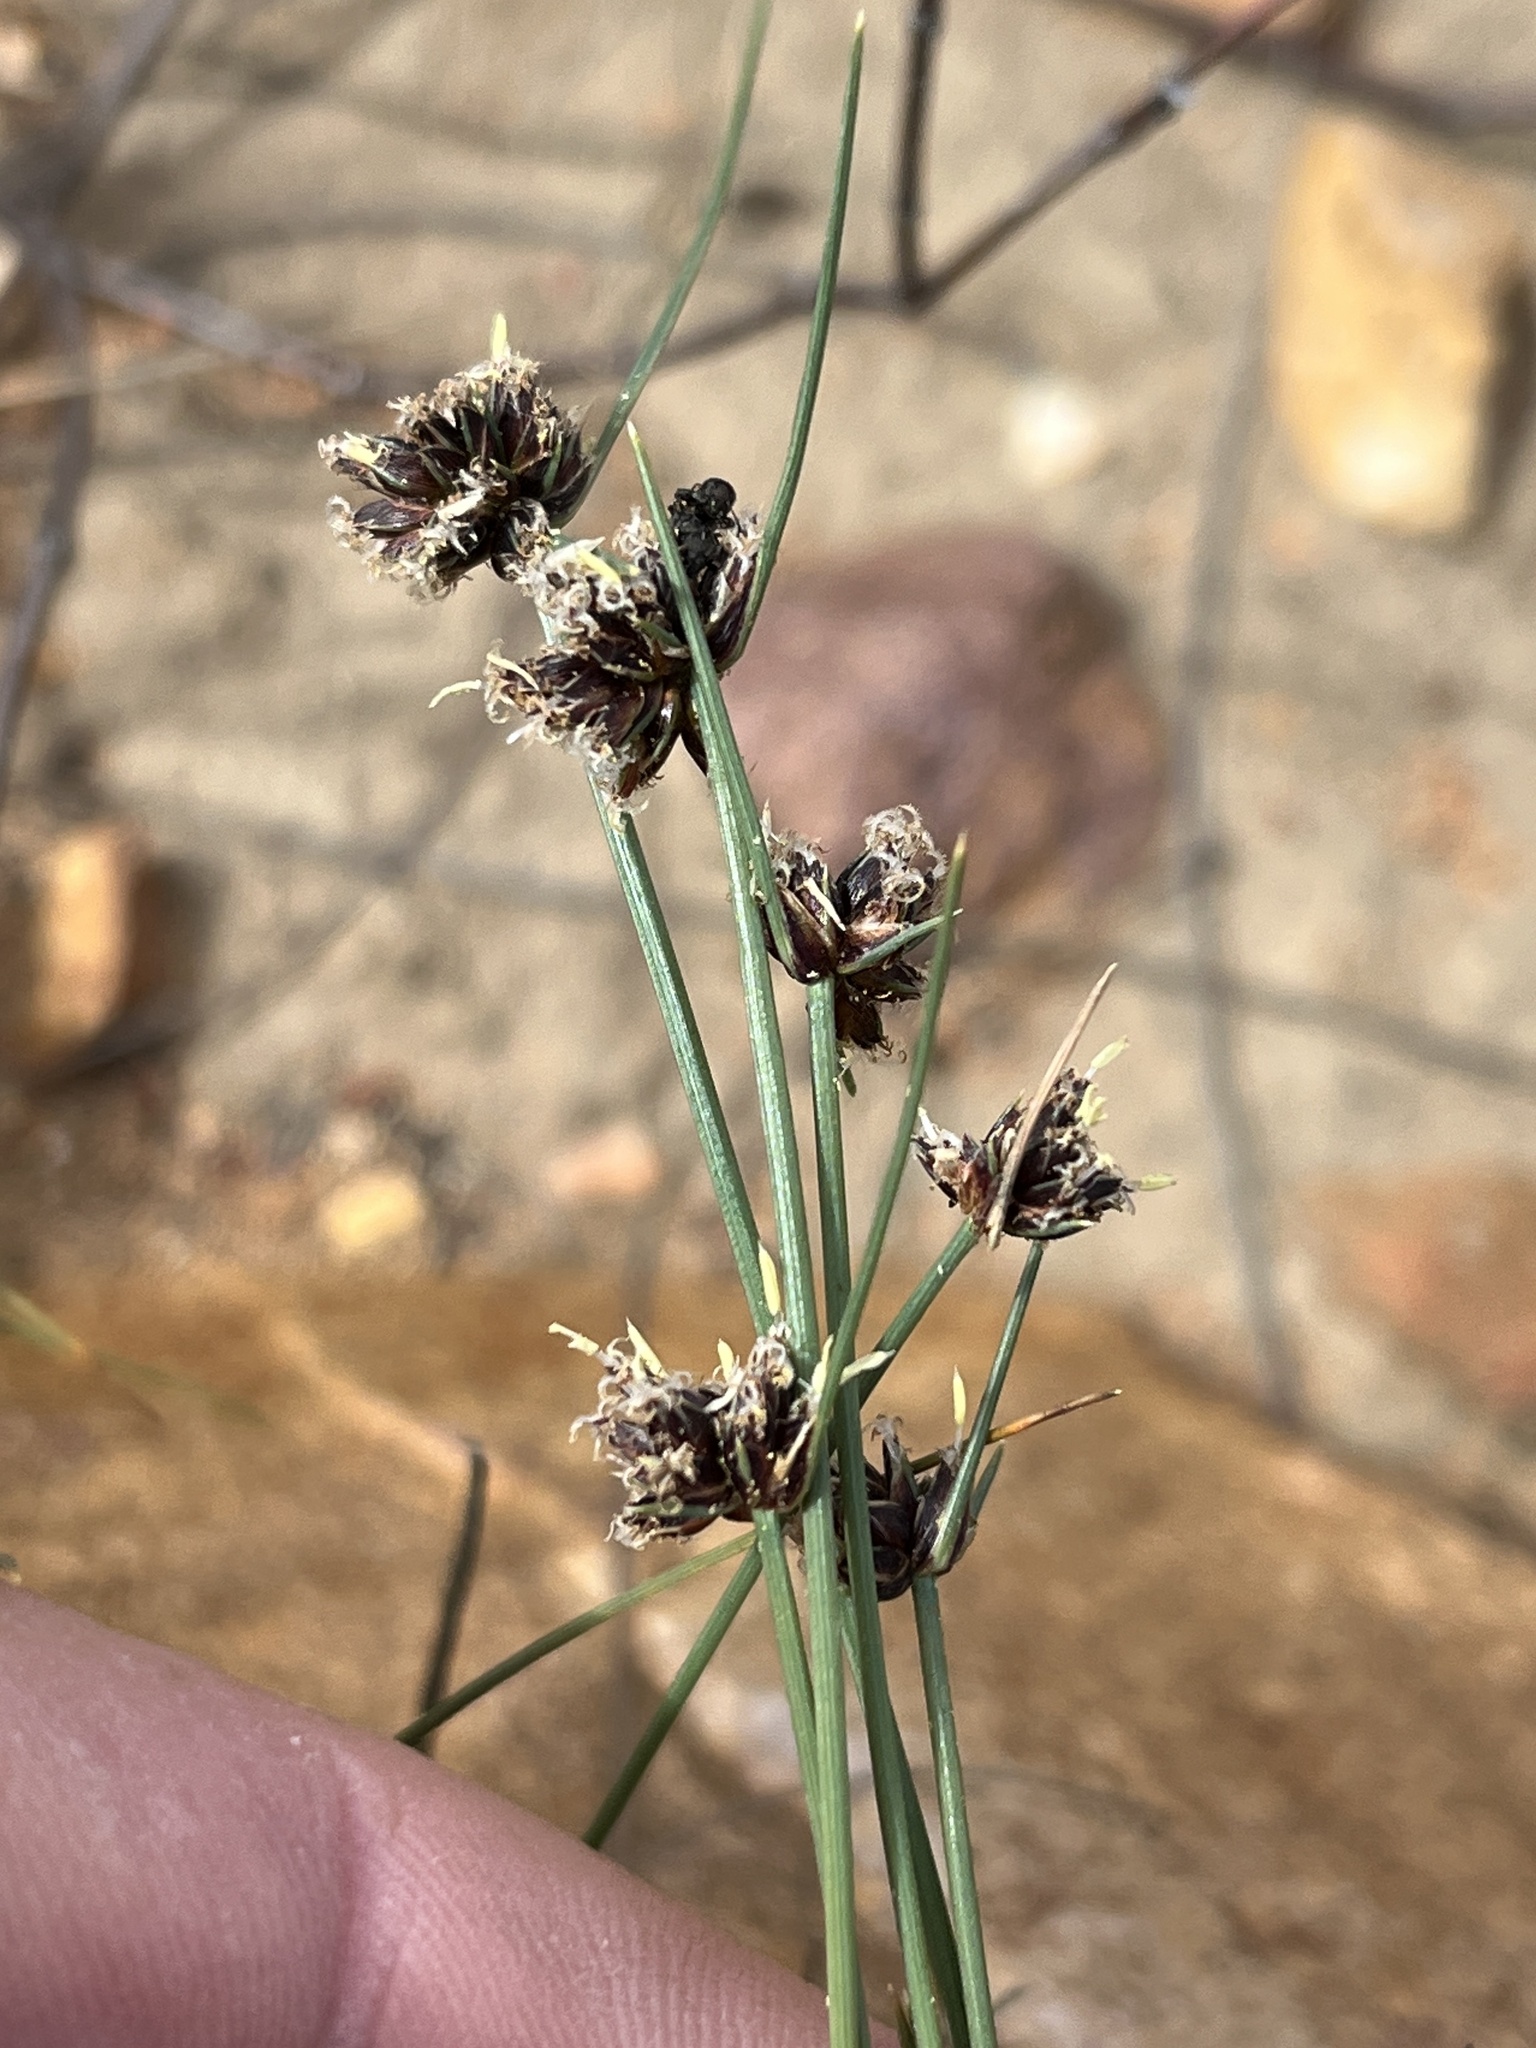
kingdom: Plantae
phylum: Tracheophyta
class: Liliopsida
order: Poales
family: Cyperaceae
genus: Ficinia
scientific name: Ficinia gracilis
